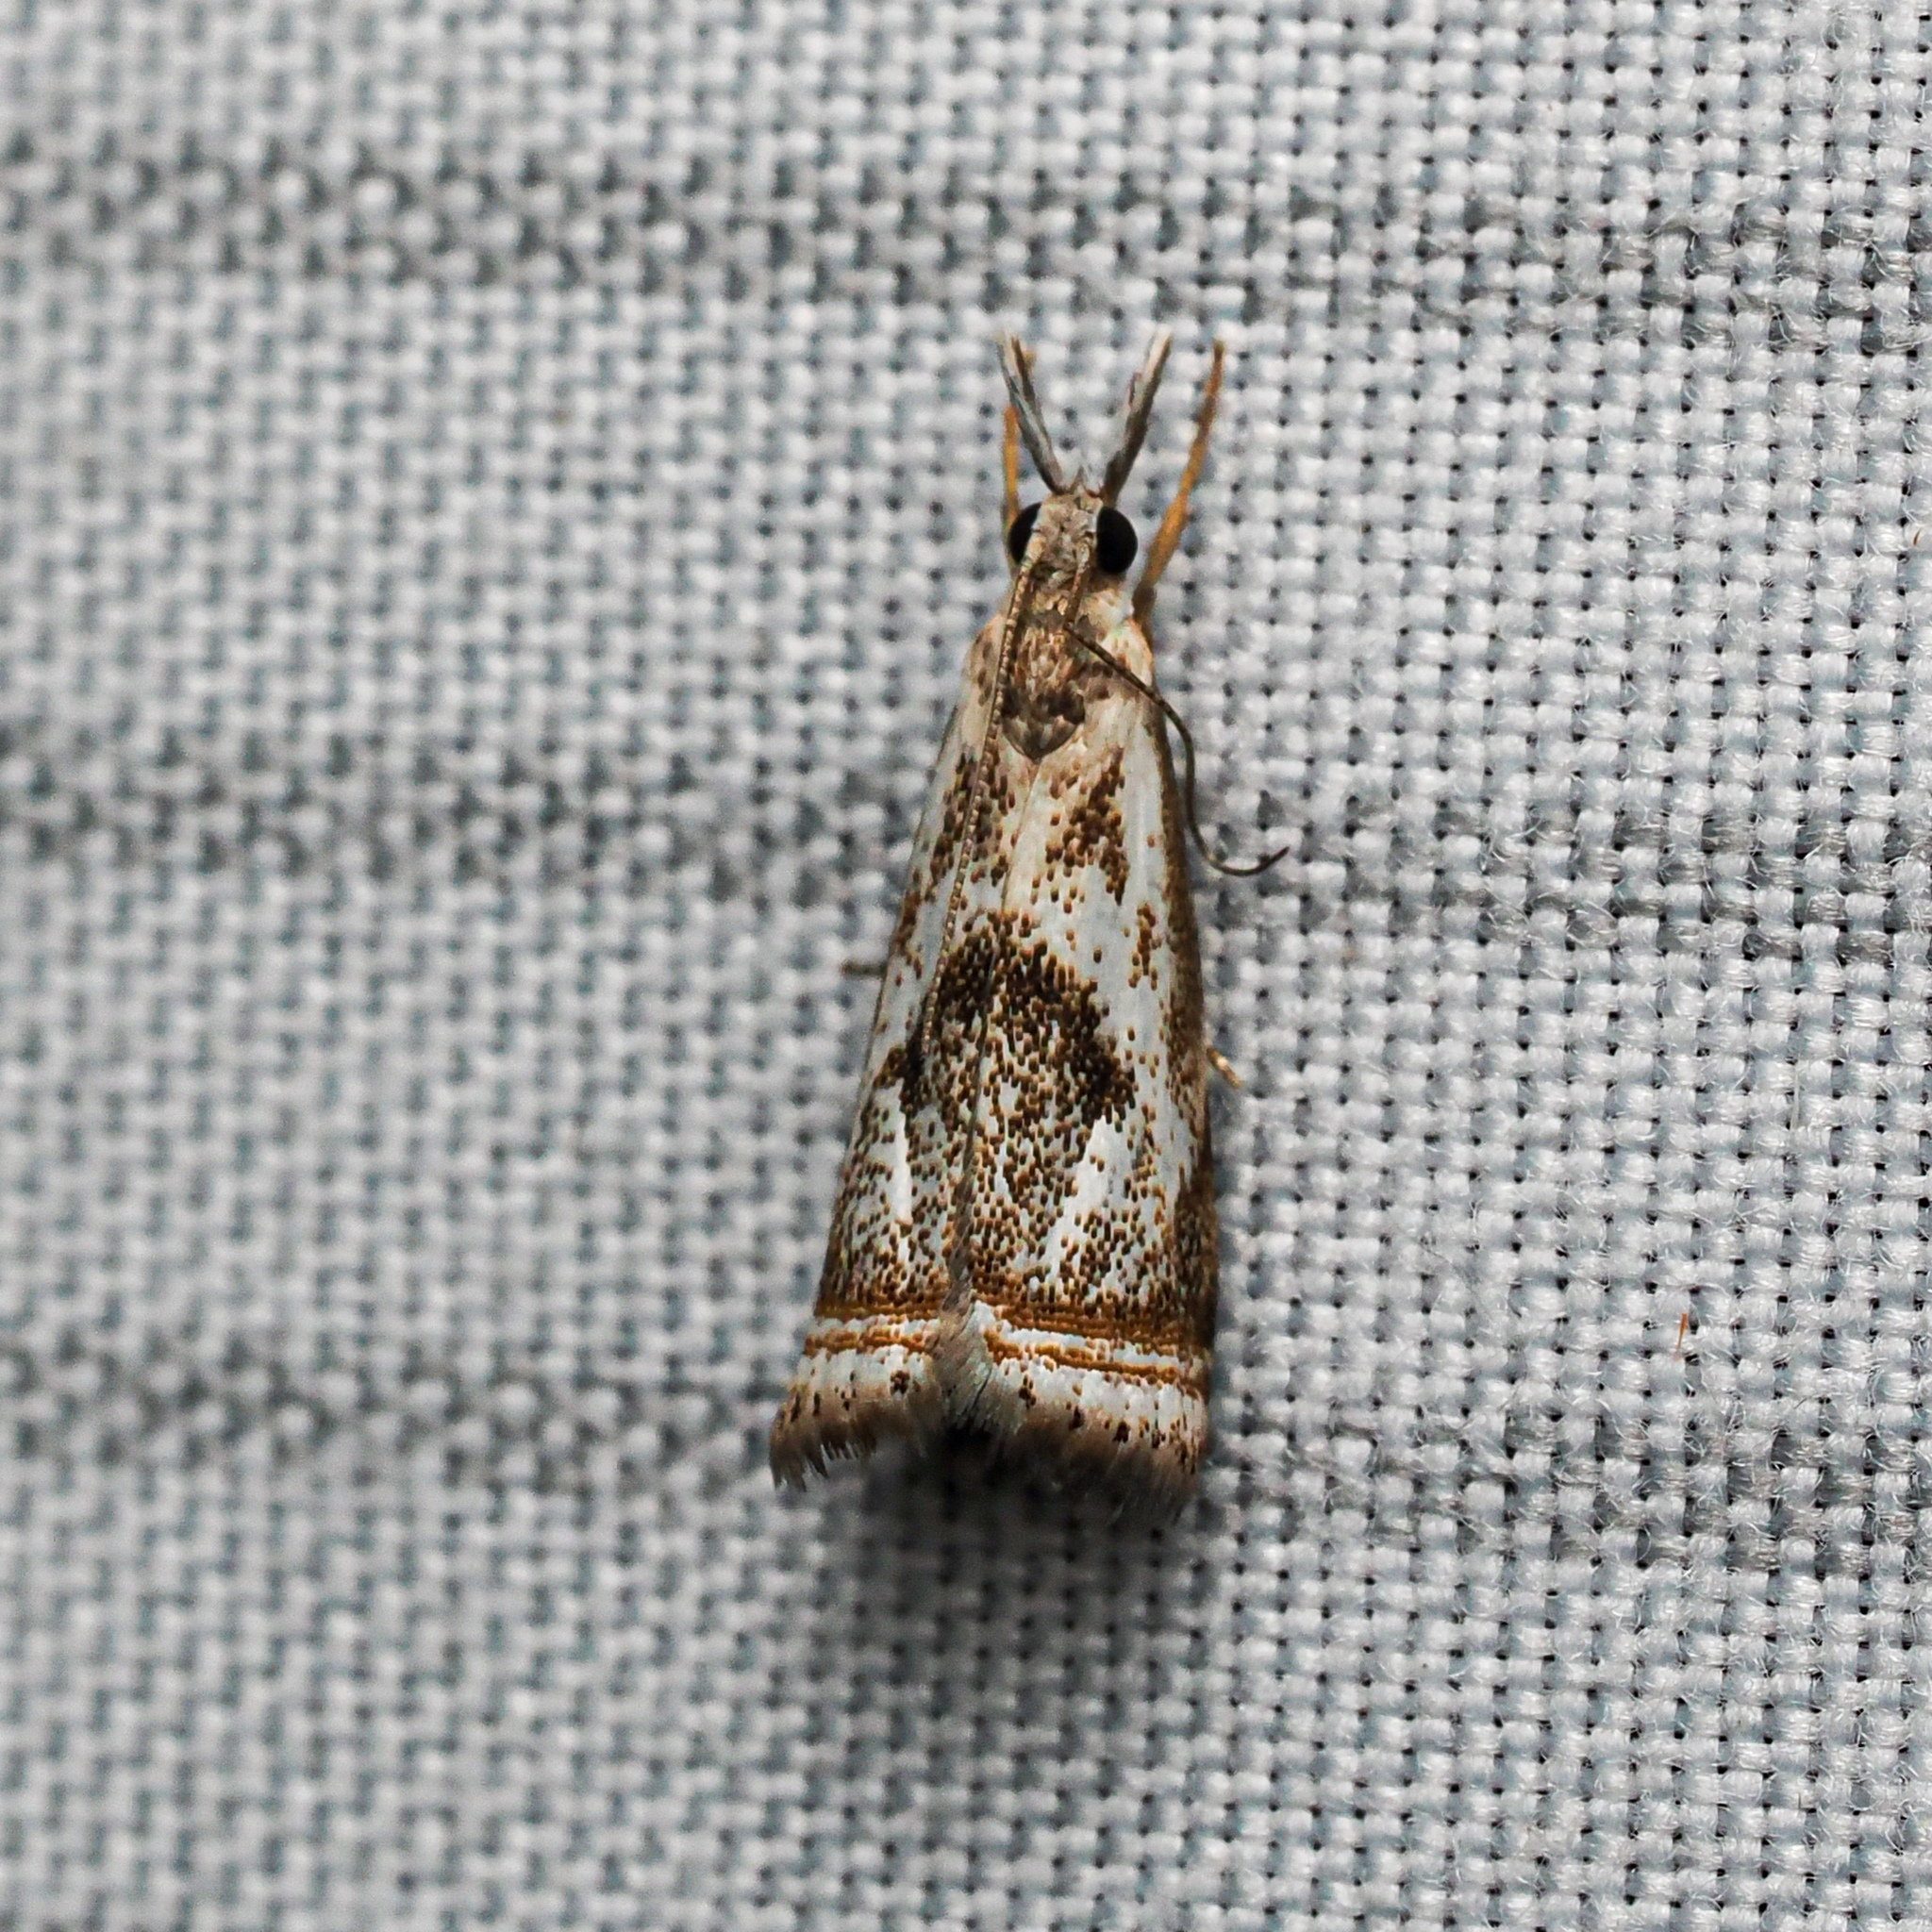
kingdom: Animalia
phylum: Arthropoda
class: Insecta
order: Lepidoptera
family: Crambidae
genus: Microcrambus
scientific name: Microcrambus elegans
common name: Elegant grass-veneer
